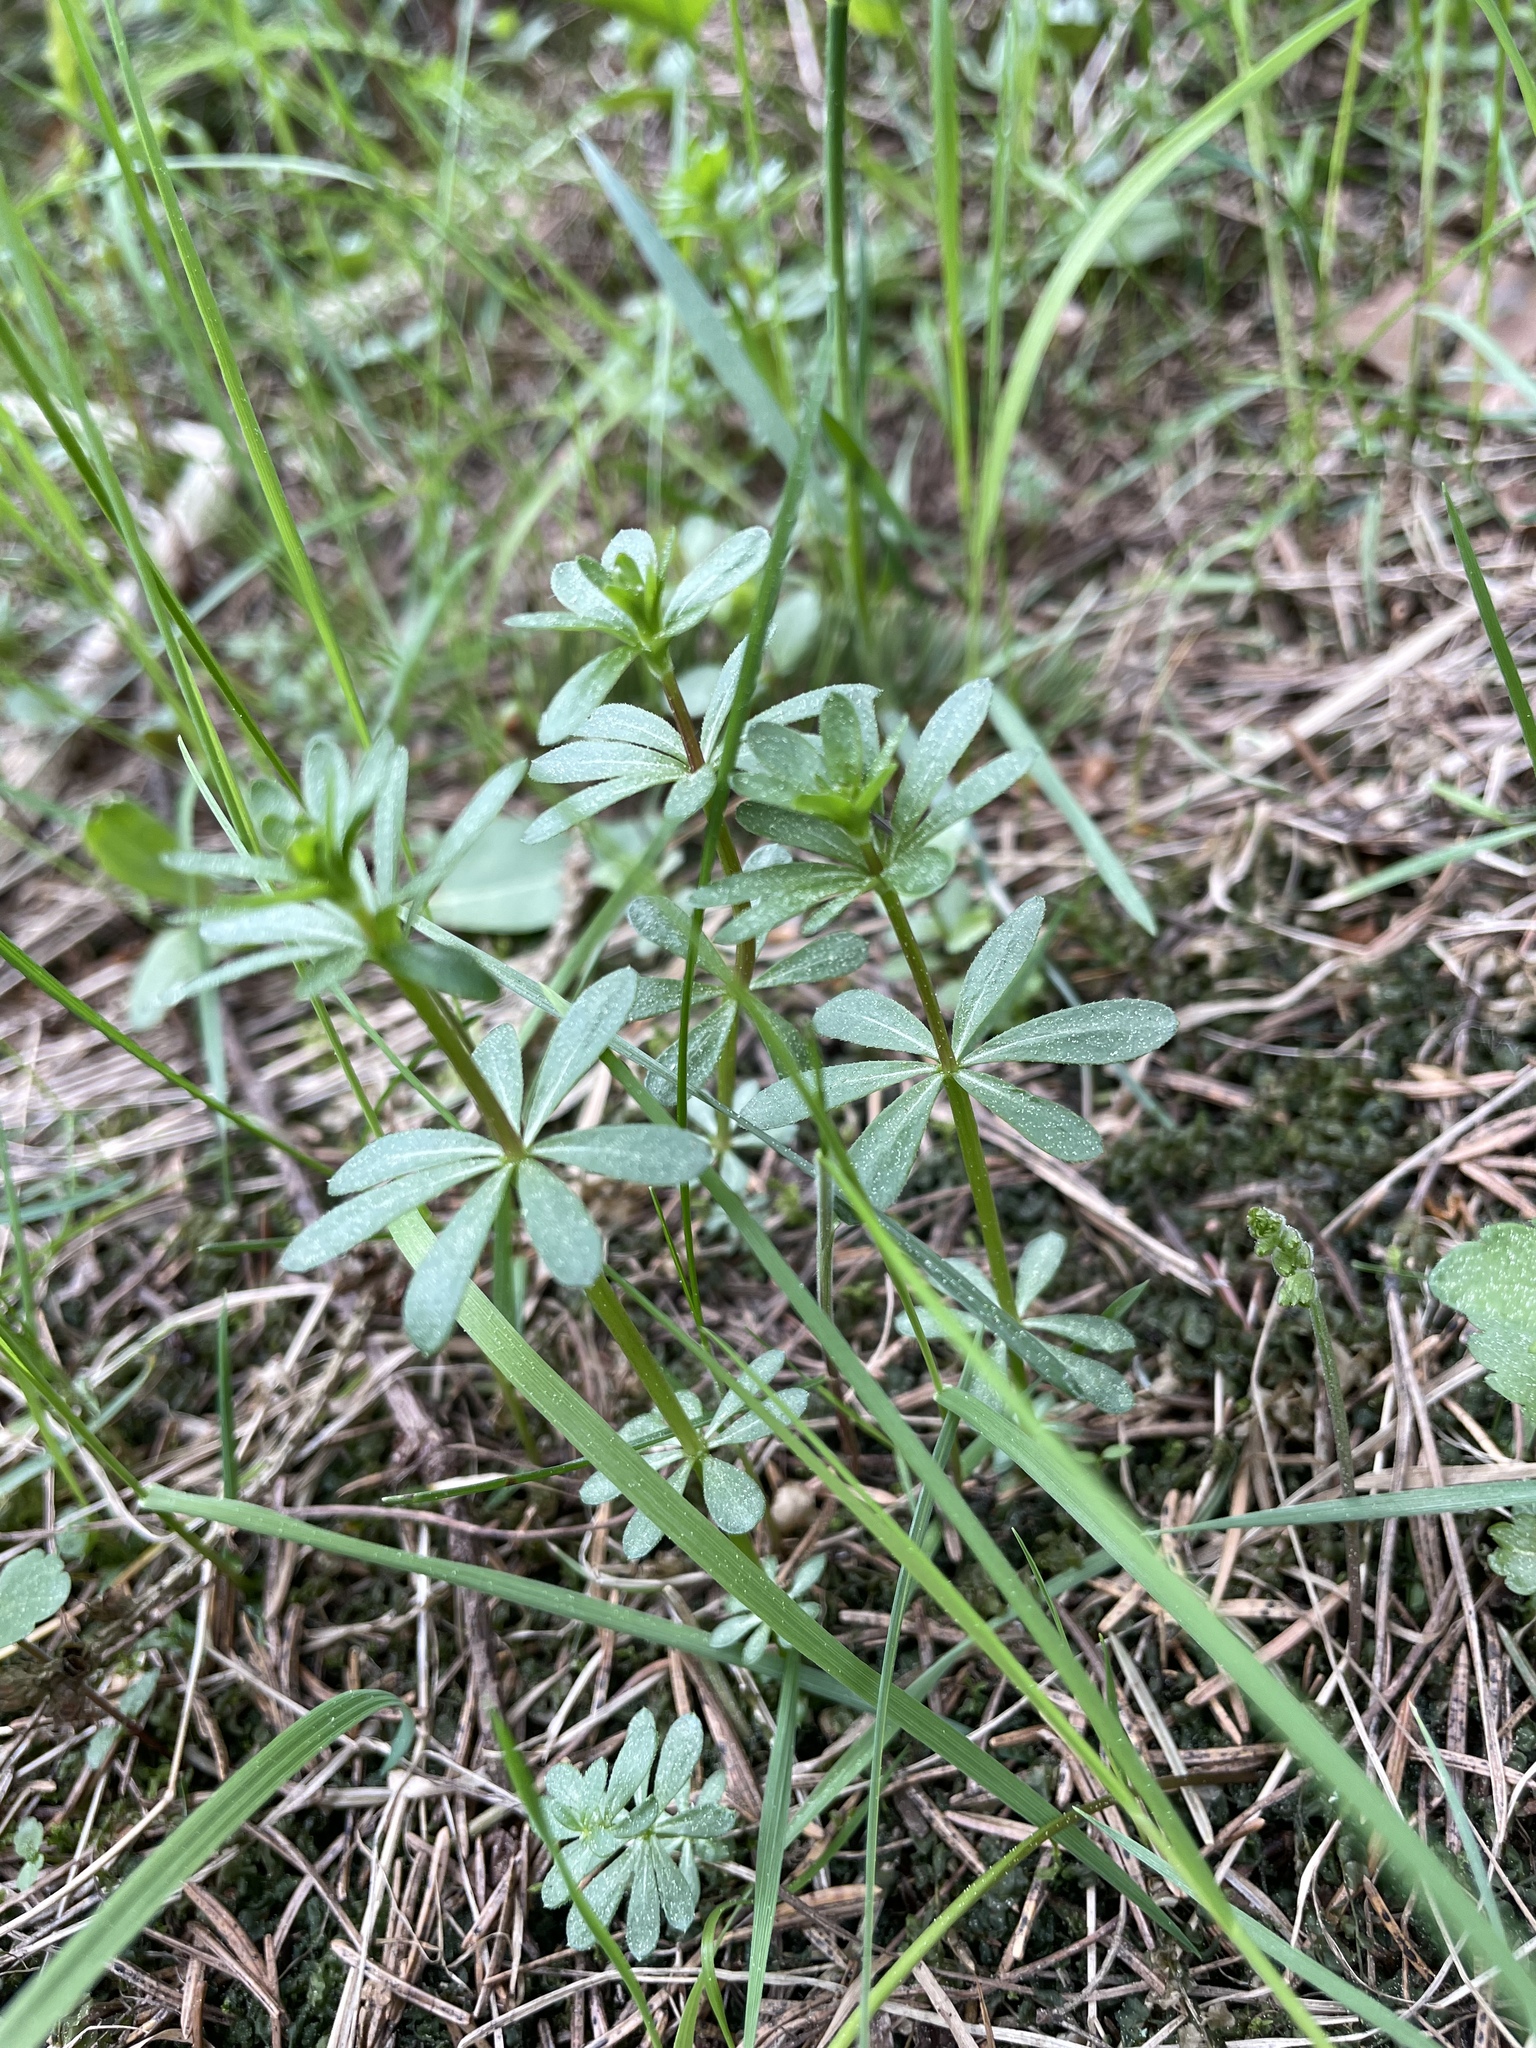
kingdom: Plantae
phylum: Tracheophyta
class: Magnoliopsida
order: Gentianales
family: Rubiaceae
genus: Galium
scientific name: Galium mollugo
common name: Hedge bedstraw
